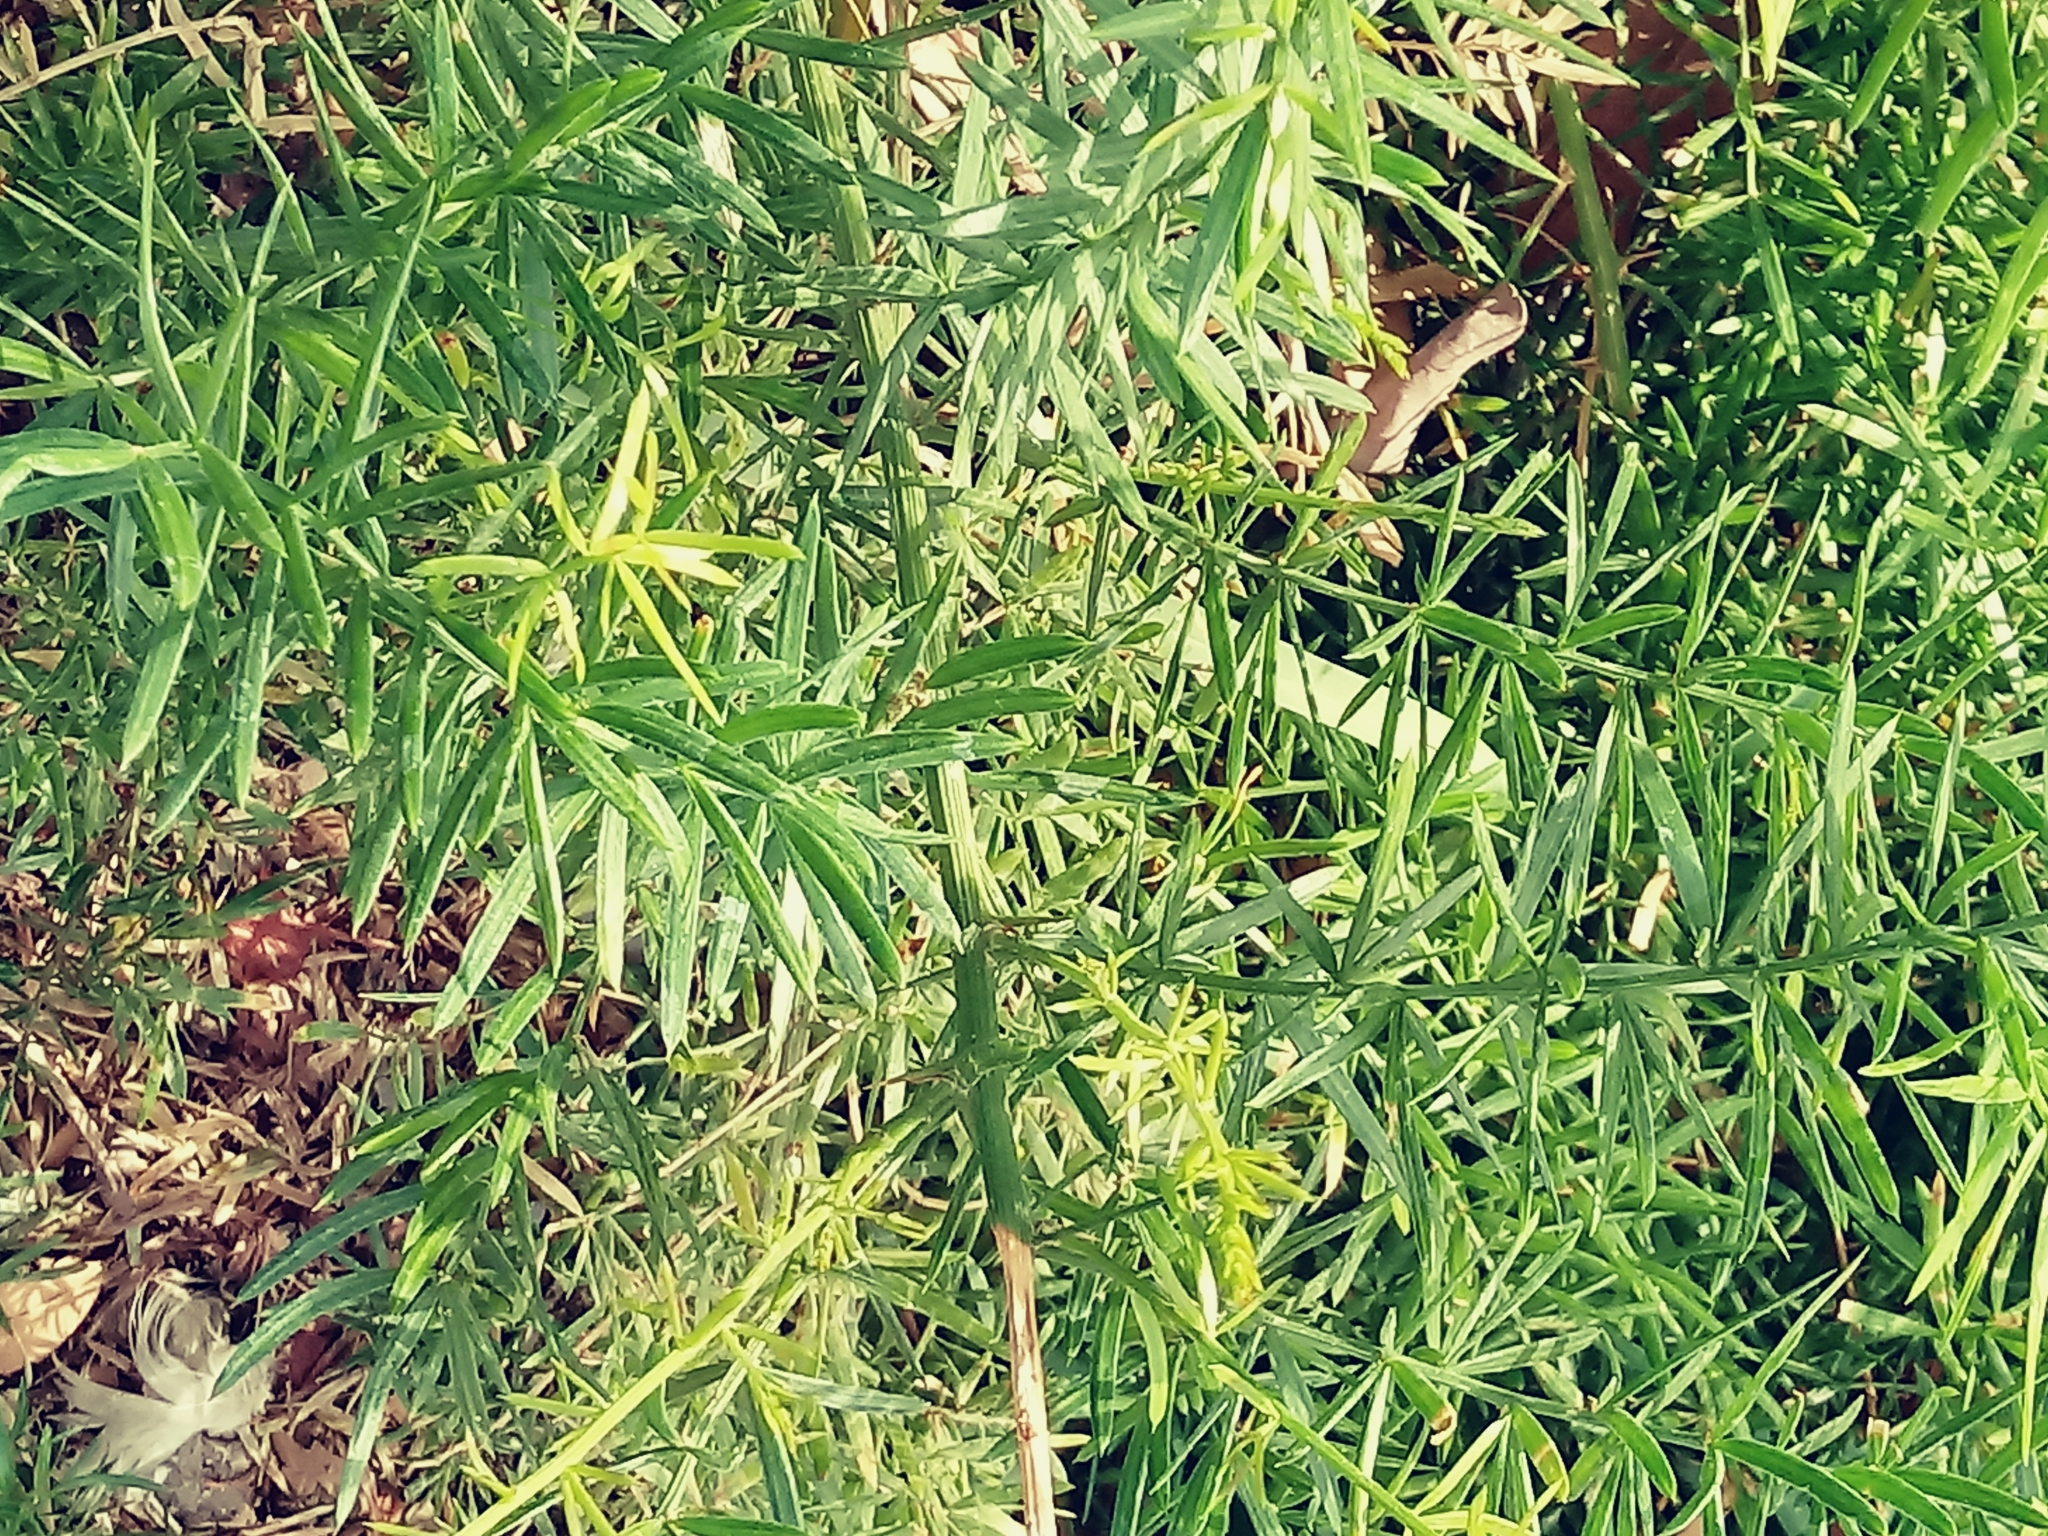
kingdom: Plantae
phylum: Tracheophyta
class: Liliopsida
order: Asparagales
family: Asparagaceae
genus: Asparagus
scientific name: Asparagus aethiopicus
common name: Sprenger's asparagus fern
